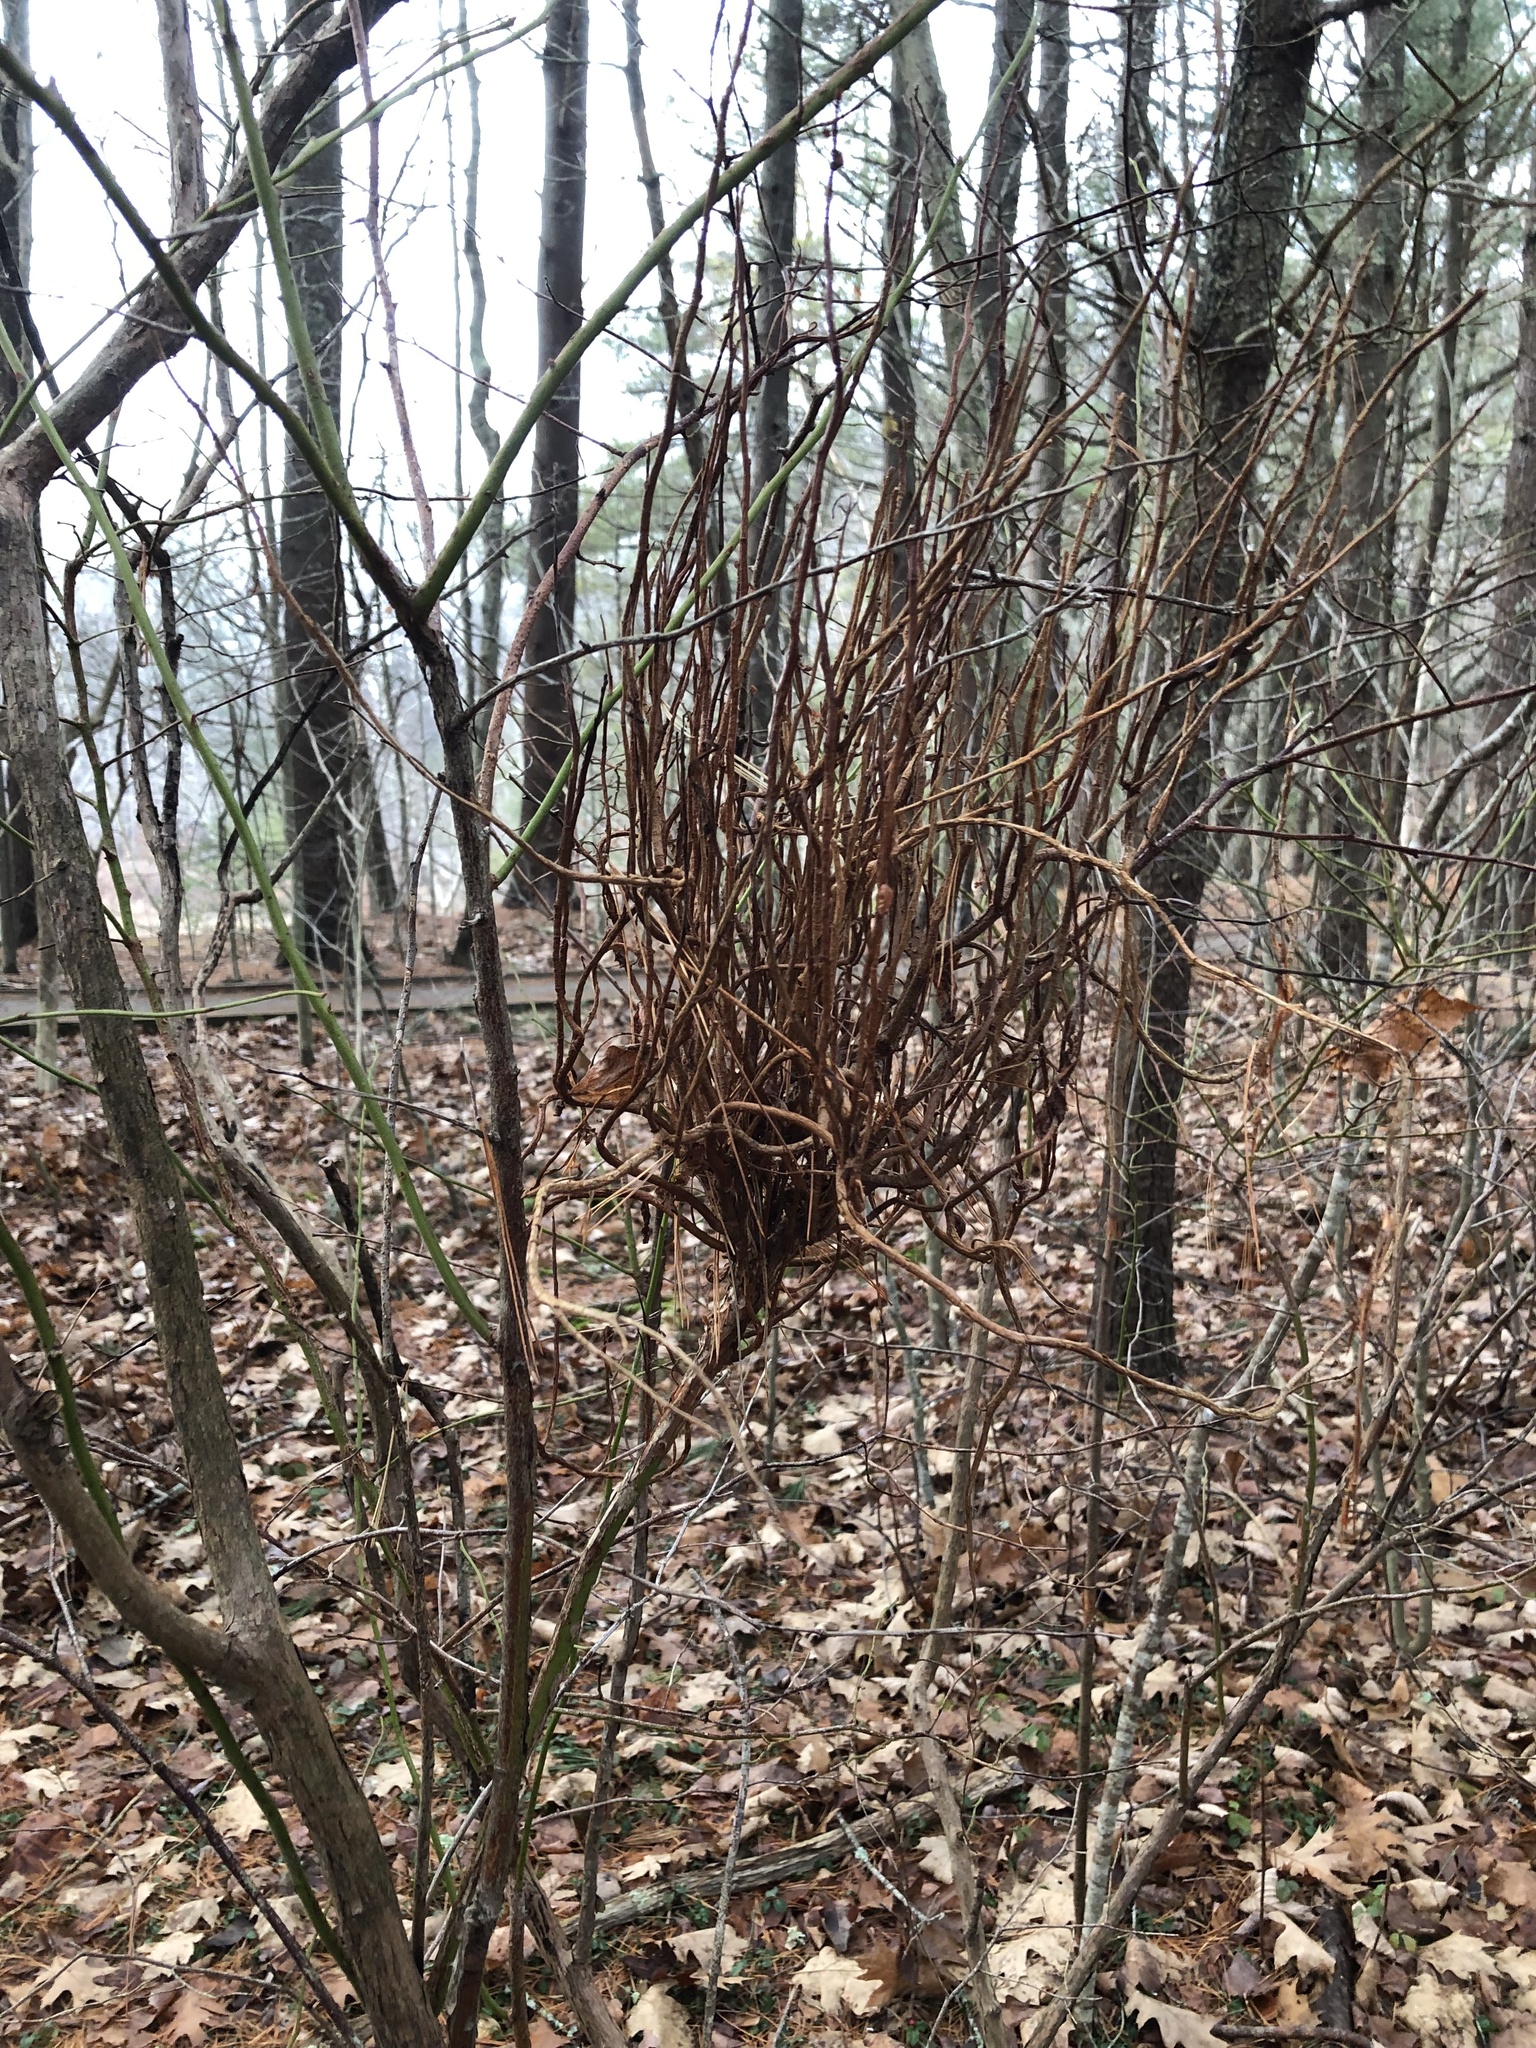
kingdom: Fungi
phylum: Basidiomycota
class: Pucciniomycetes
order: Pucciniales
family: Pucciniastraceae
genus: Calyptospora
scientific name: Calyptospora columnaris
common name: Huckleberry broom rust fungus
